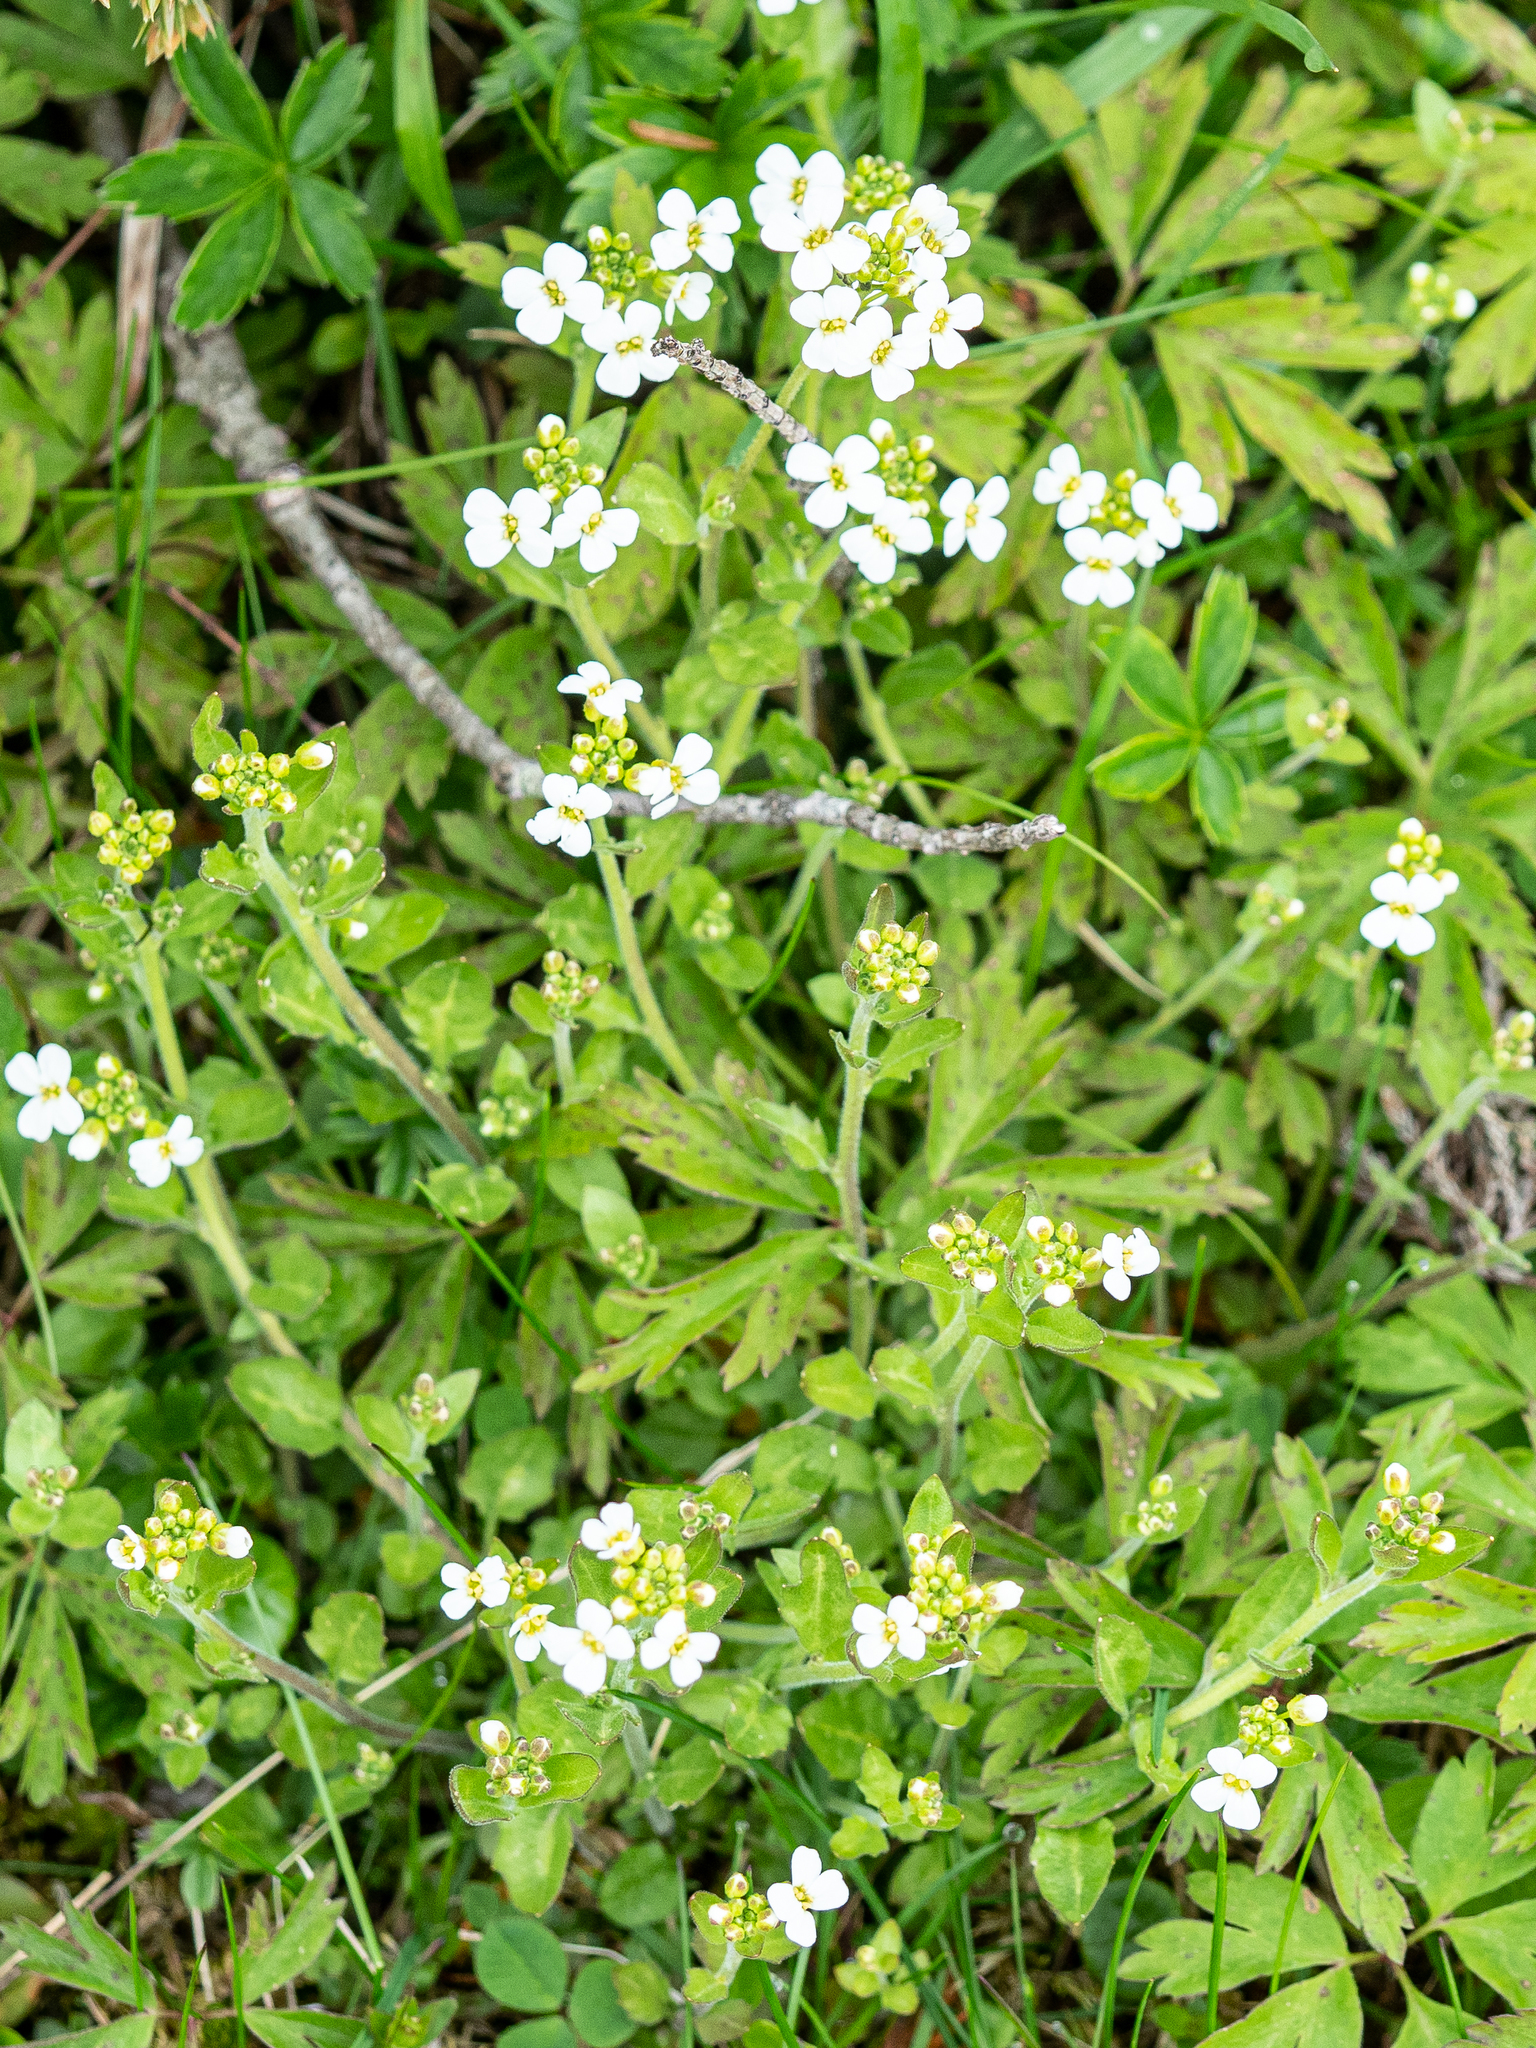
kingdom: Plantae
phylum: Tracheophyta
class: Magnoliopsida
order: Brassicales
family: Brassicaceae
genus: Arabidopsis
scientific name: Arabidopsis halleri
